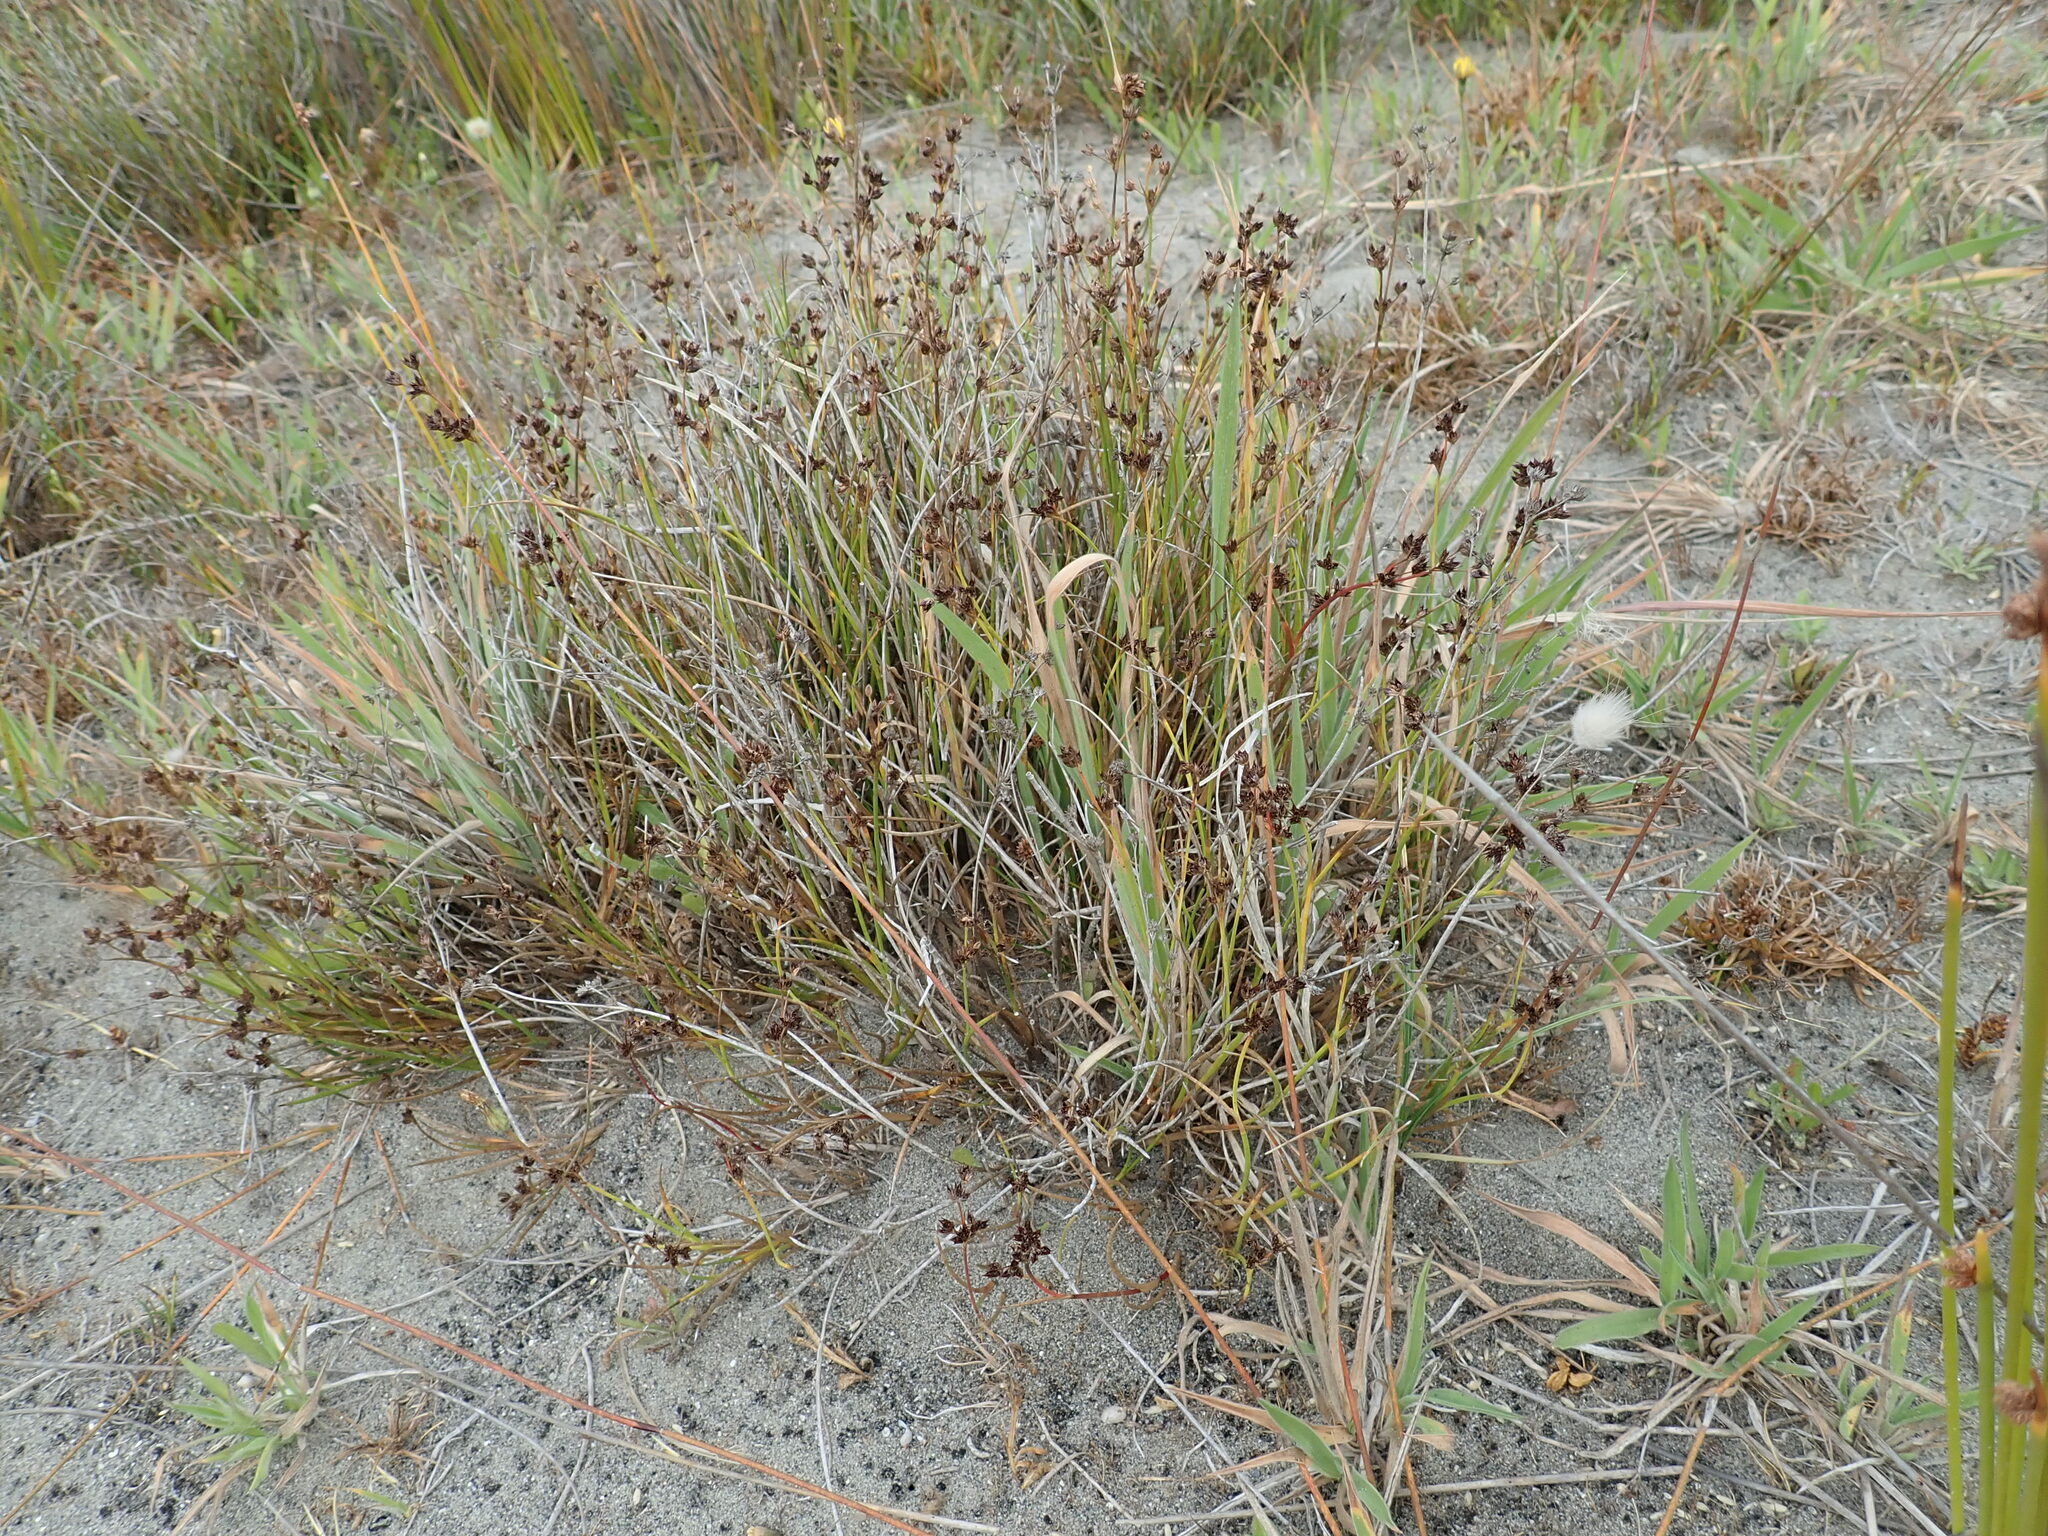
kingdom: Plantae
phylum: Tracheophyta
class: Liliopsida
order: Poales
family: Juncaceae
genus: Juncus
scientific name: Juncus articulatus
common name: Jointed rush
